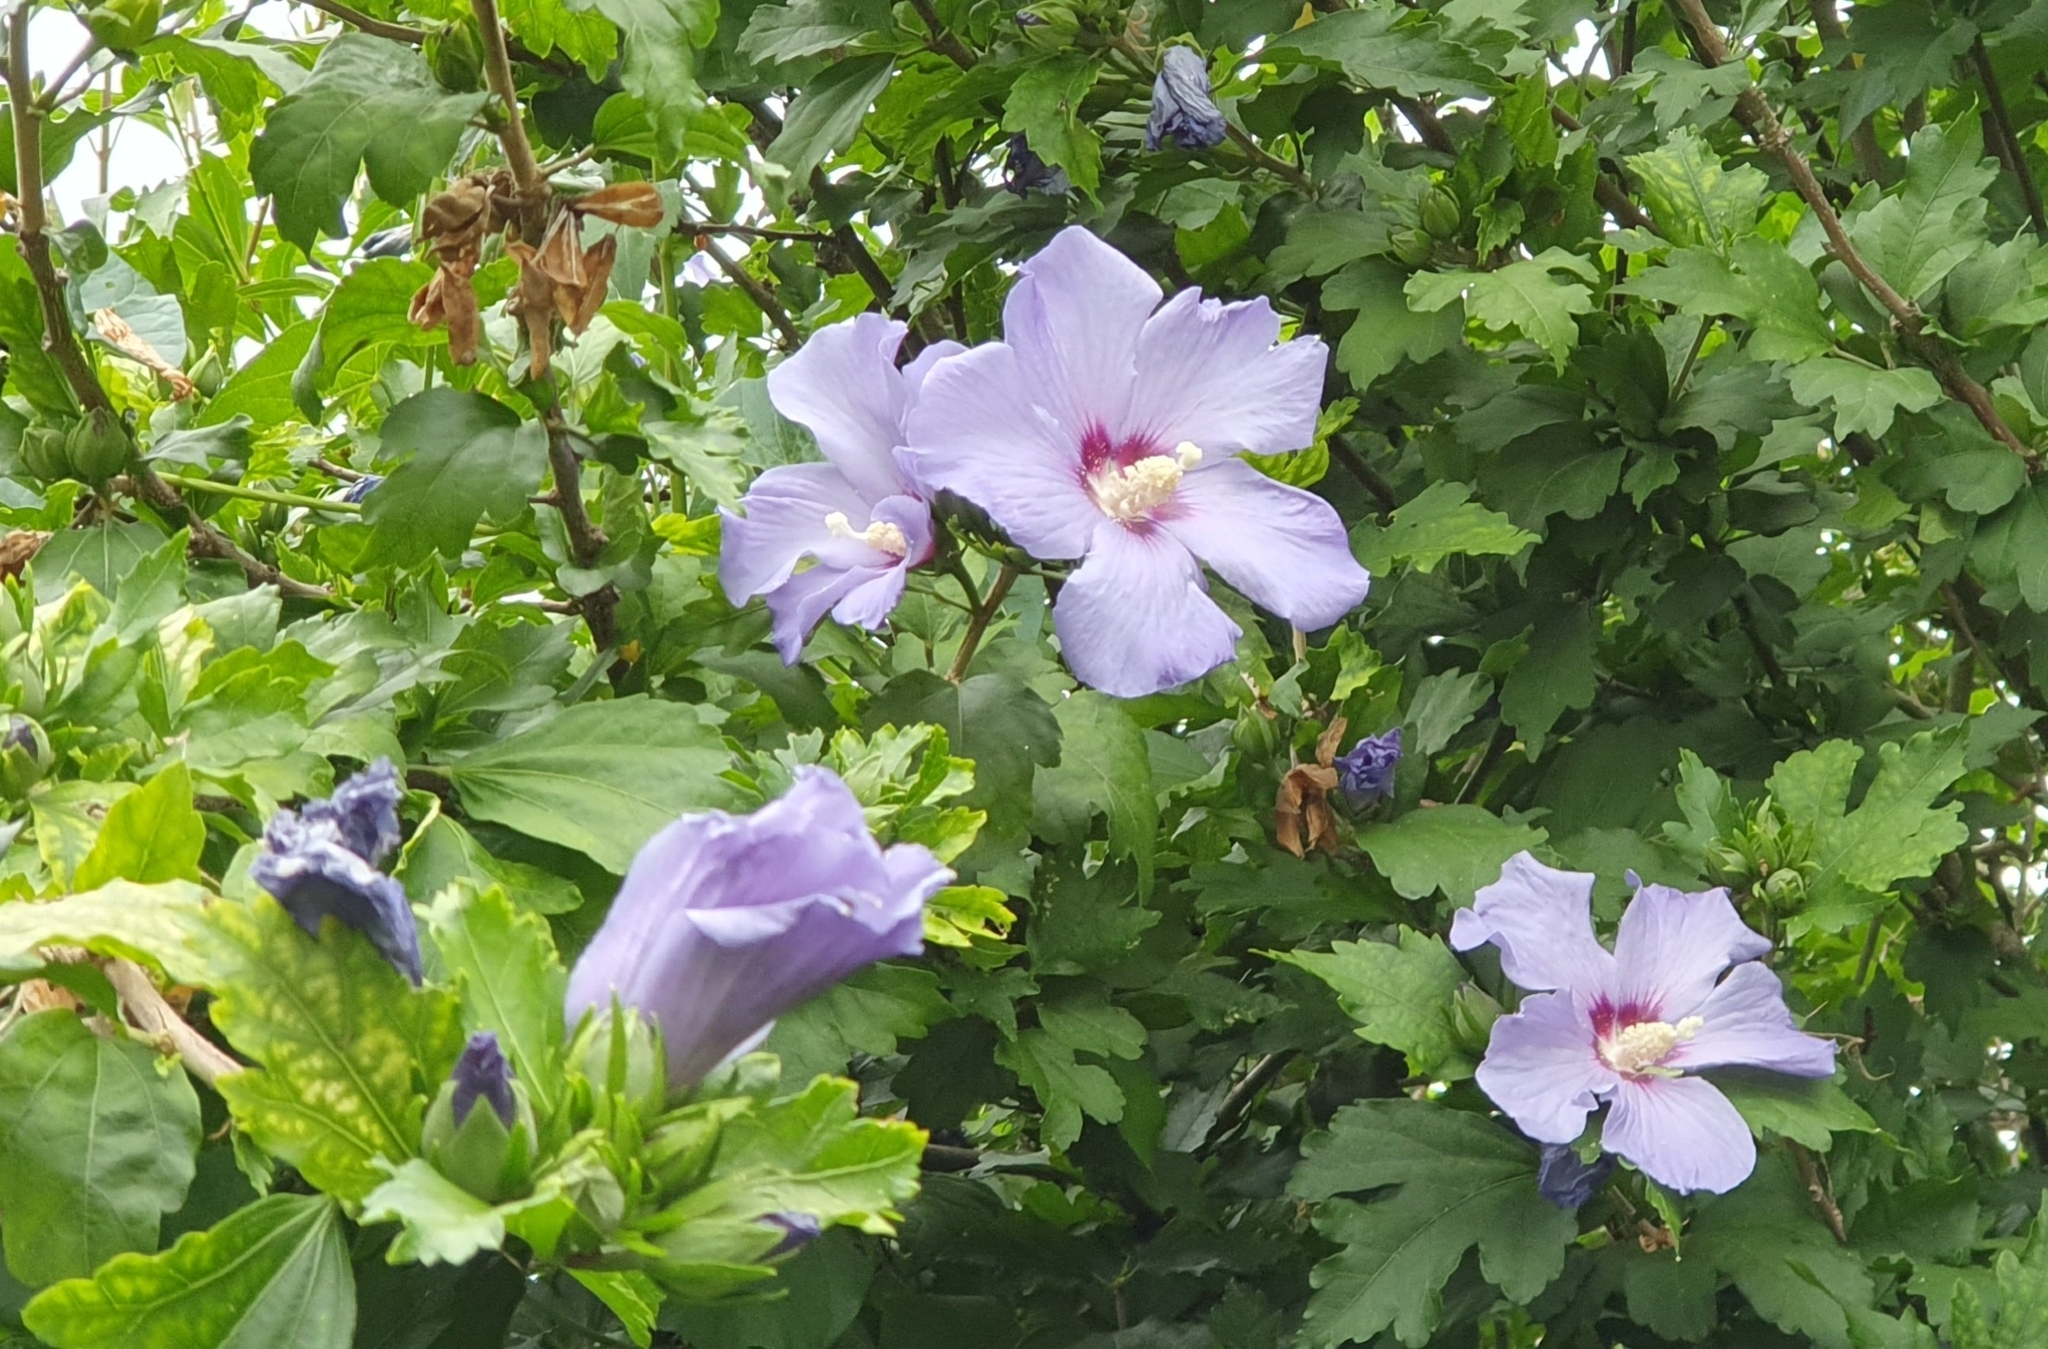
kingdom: Plantae
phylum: Tracheophyta
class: Magnoliopsida
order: Malvales
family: Malvaceae
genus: Hibiscus
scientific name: Hibiscus syriacus
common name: Syrian ketmia
